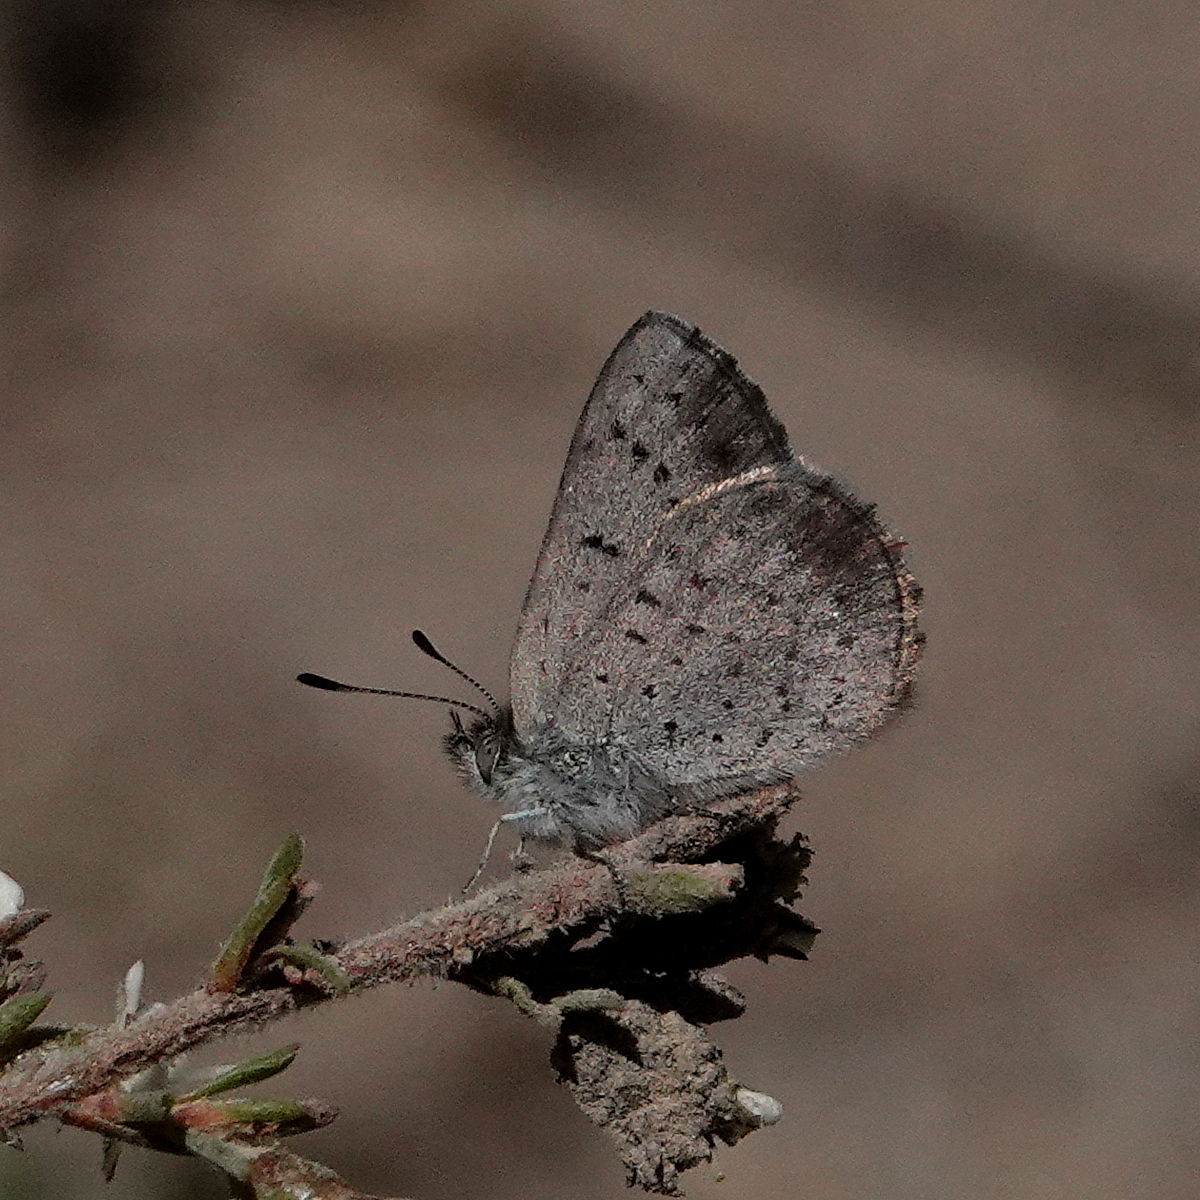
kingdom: Animalia
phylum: Arthropoda
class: Insecta
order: Lepidoptera
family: Lycaenidae
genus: Candalides
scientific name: Candalides
